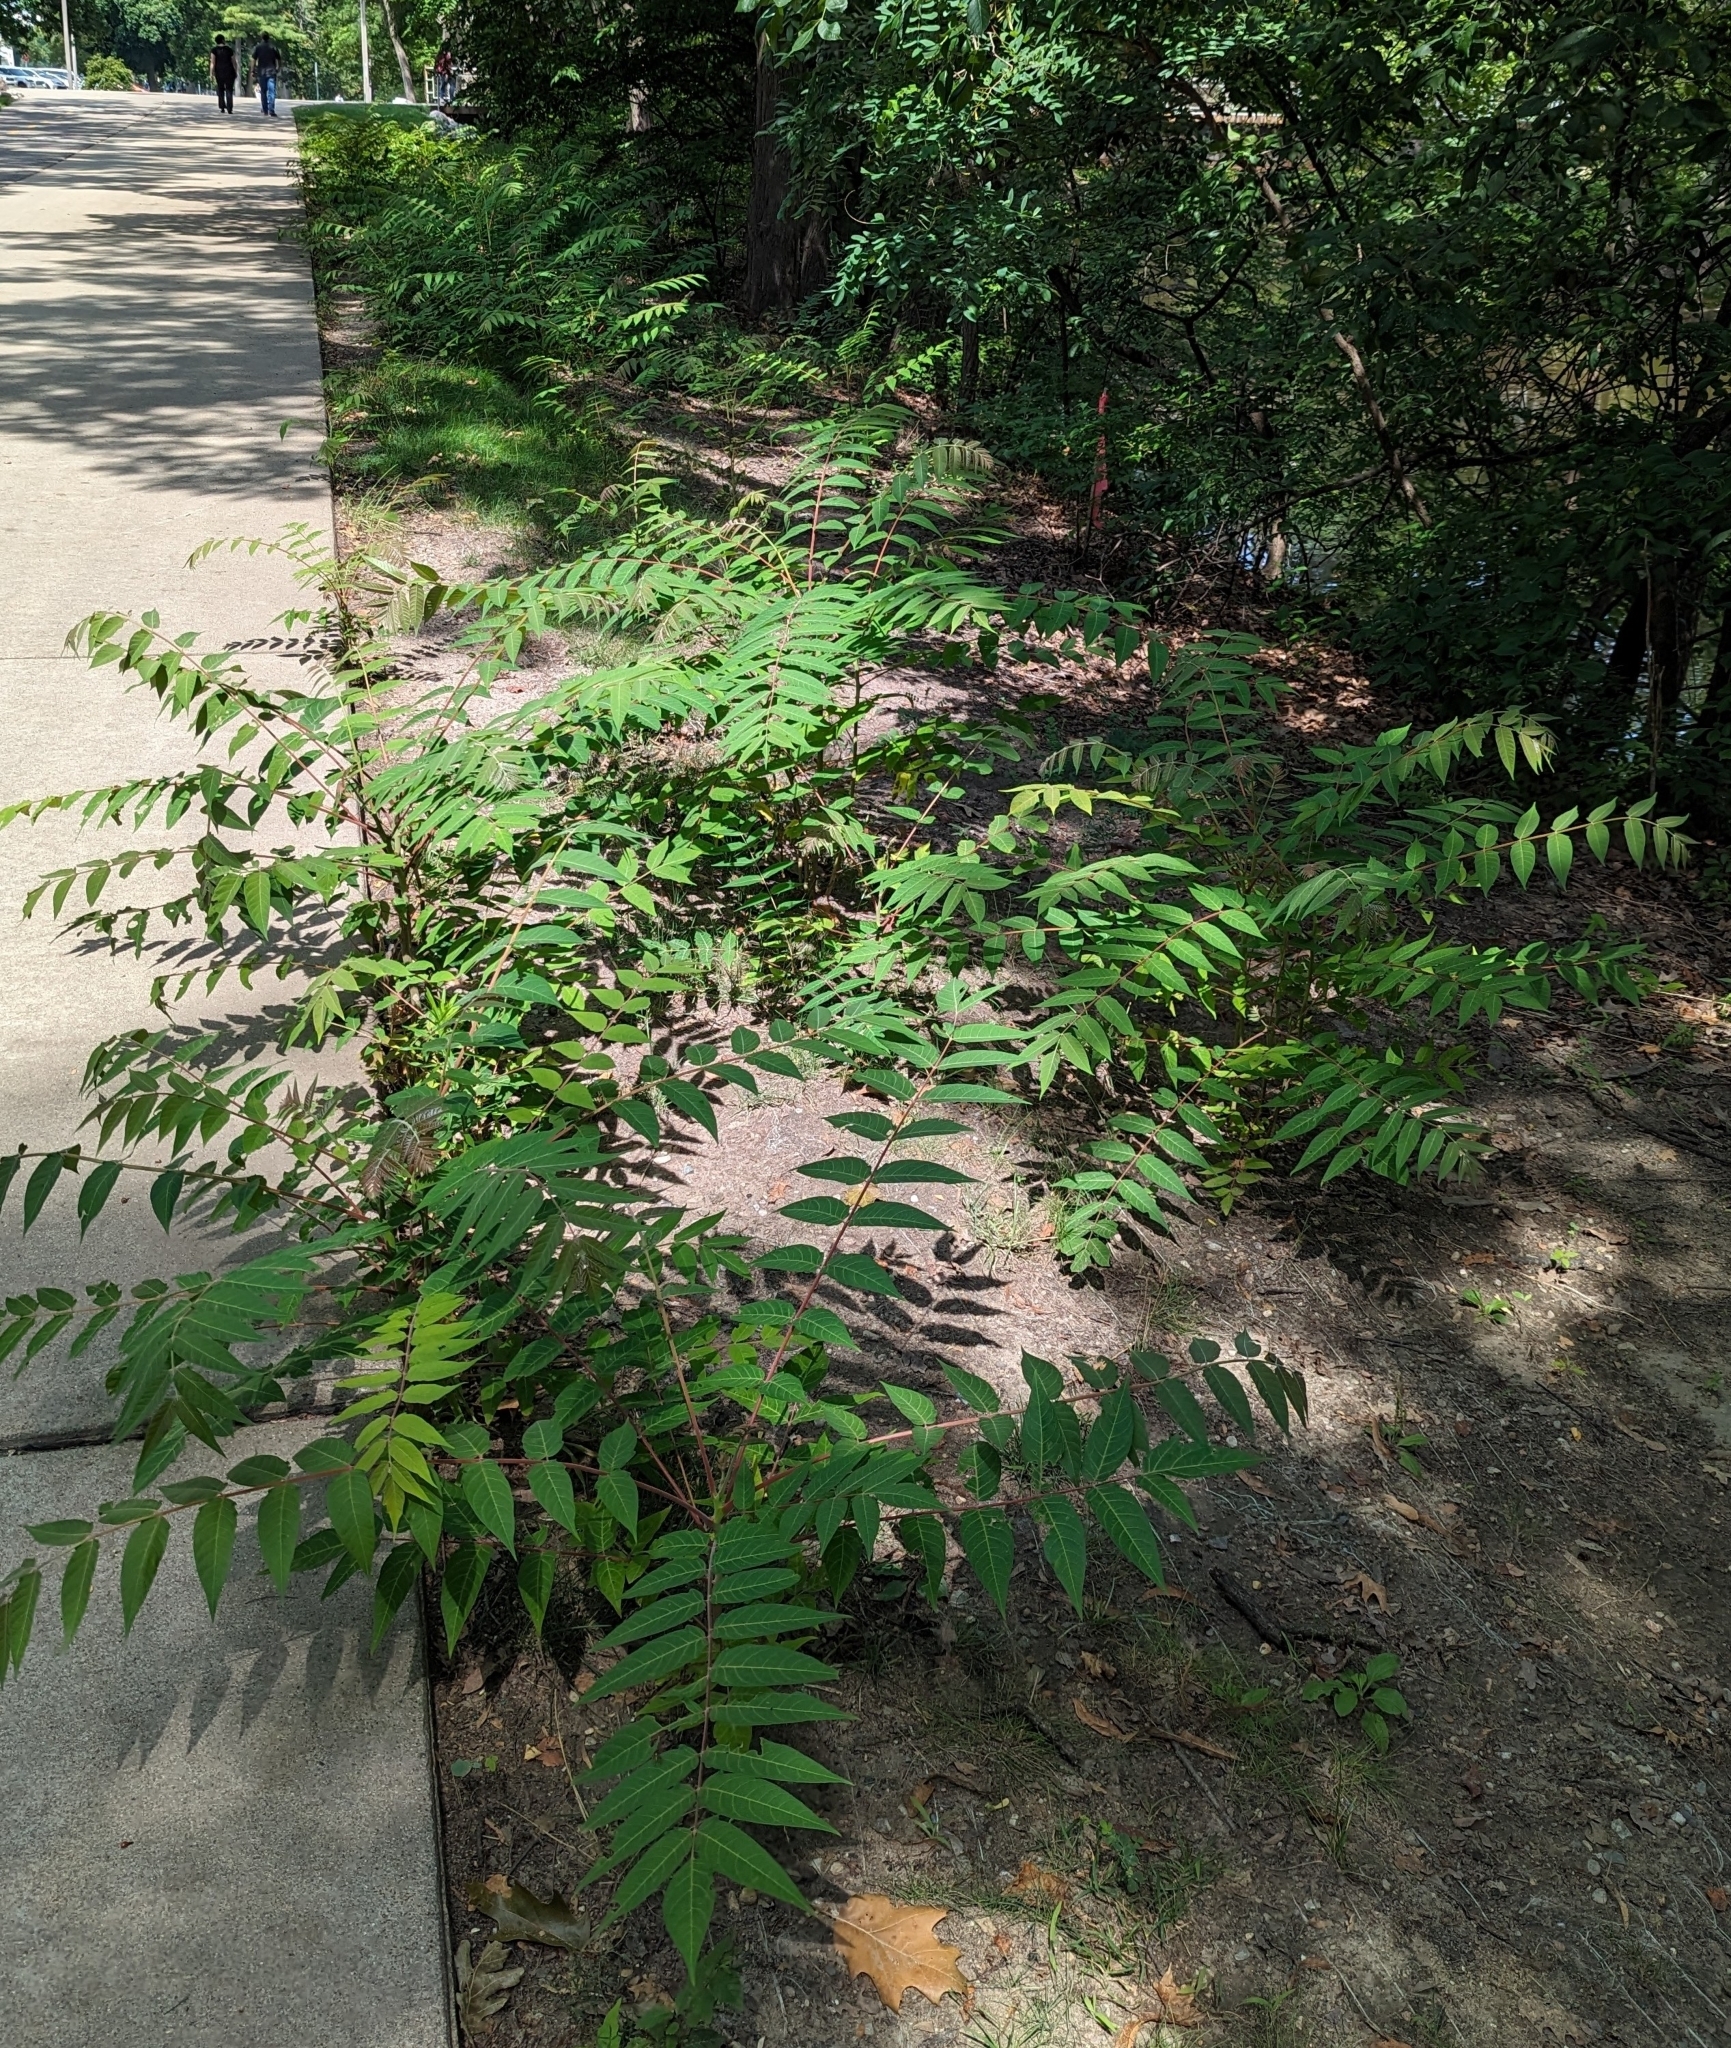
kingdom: Plantae
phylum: Tracheophyta
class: Magnoliopsida
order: Sapindales
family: Simaroubaceae
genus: Ailanthus
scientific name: Ailanthus altissima
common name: Tree-of-heaven
